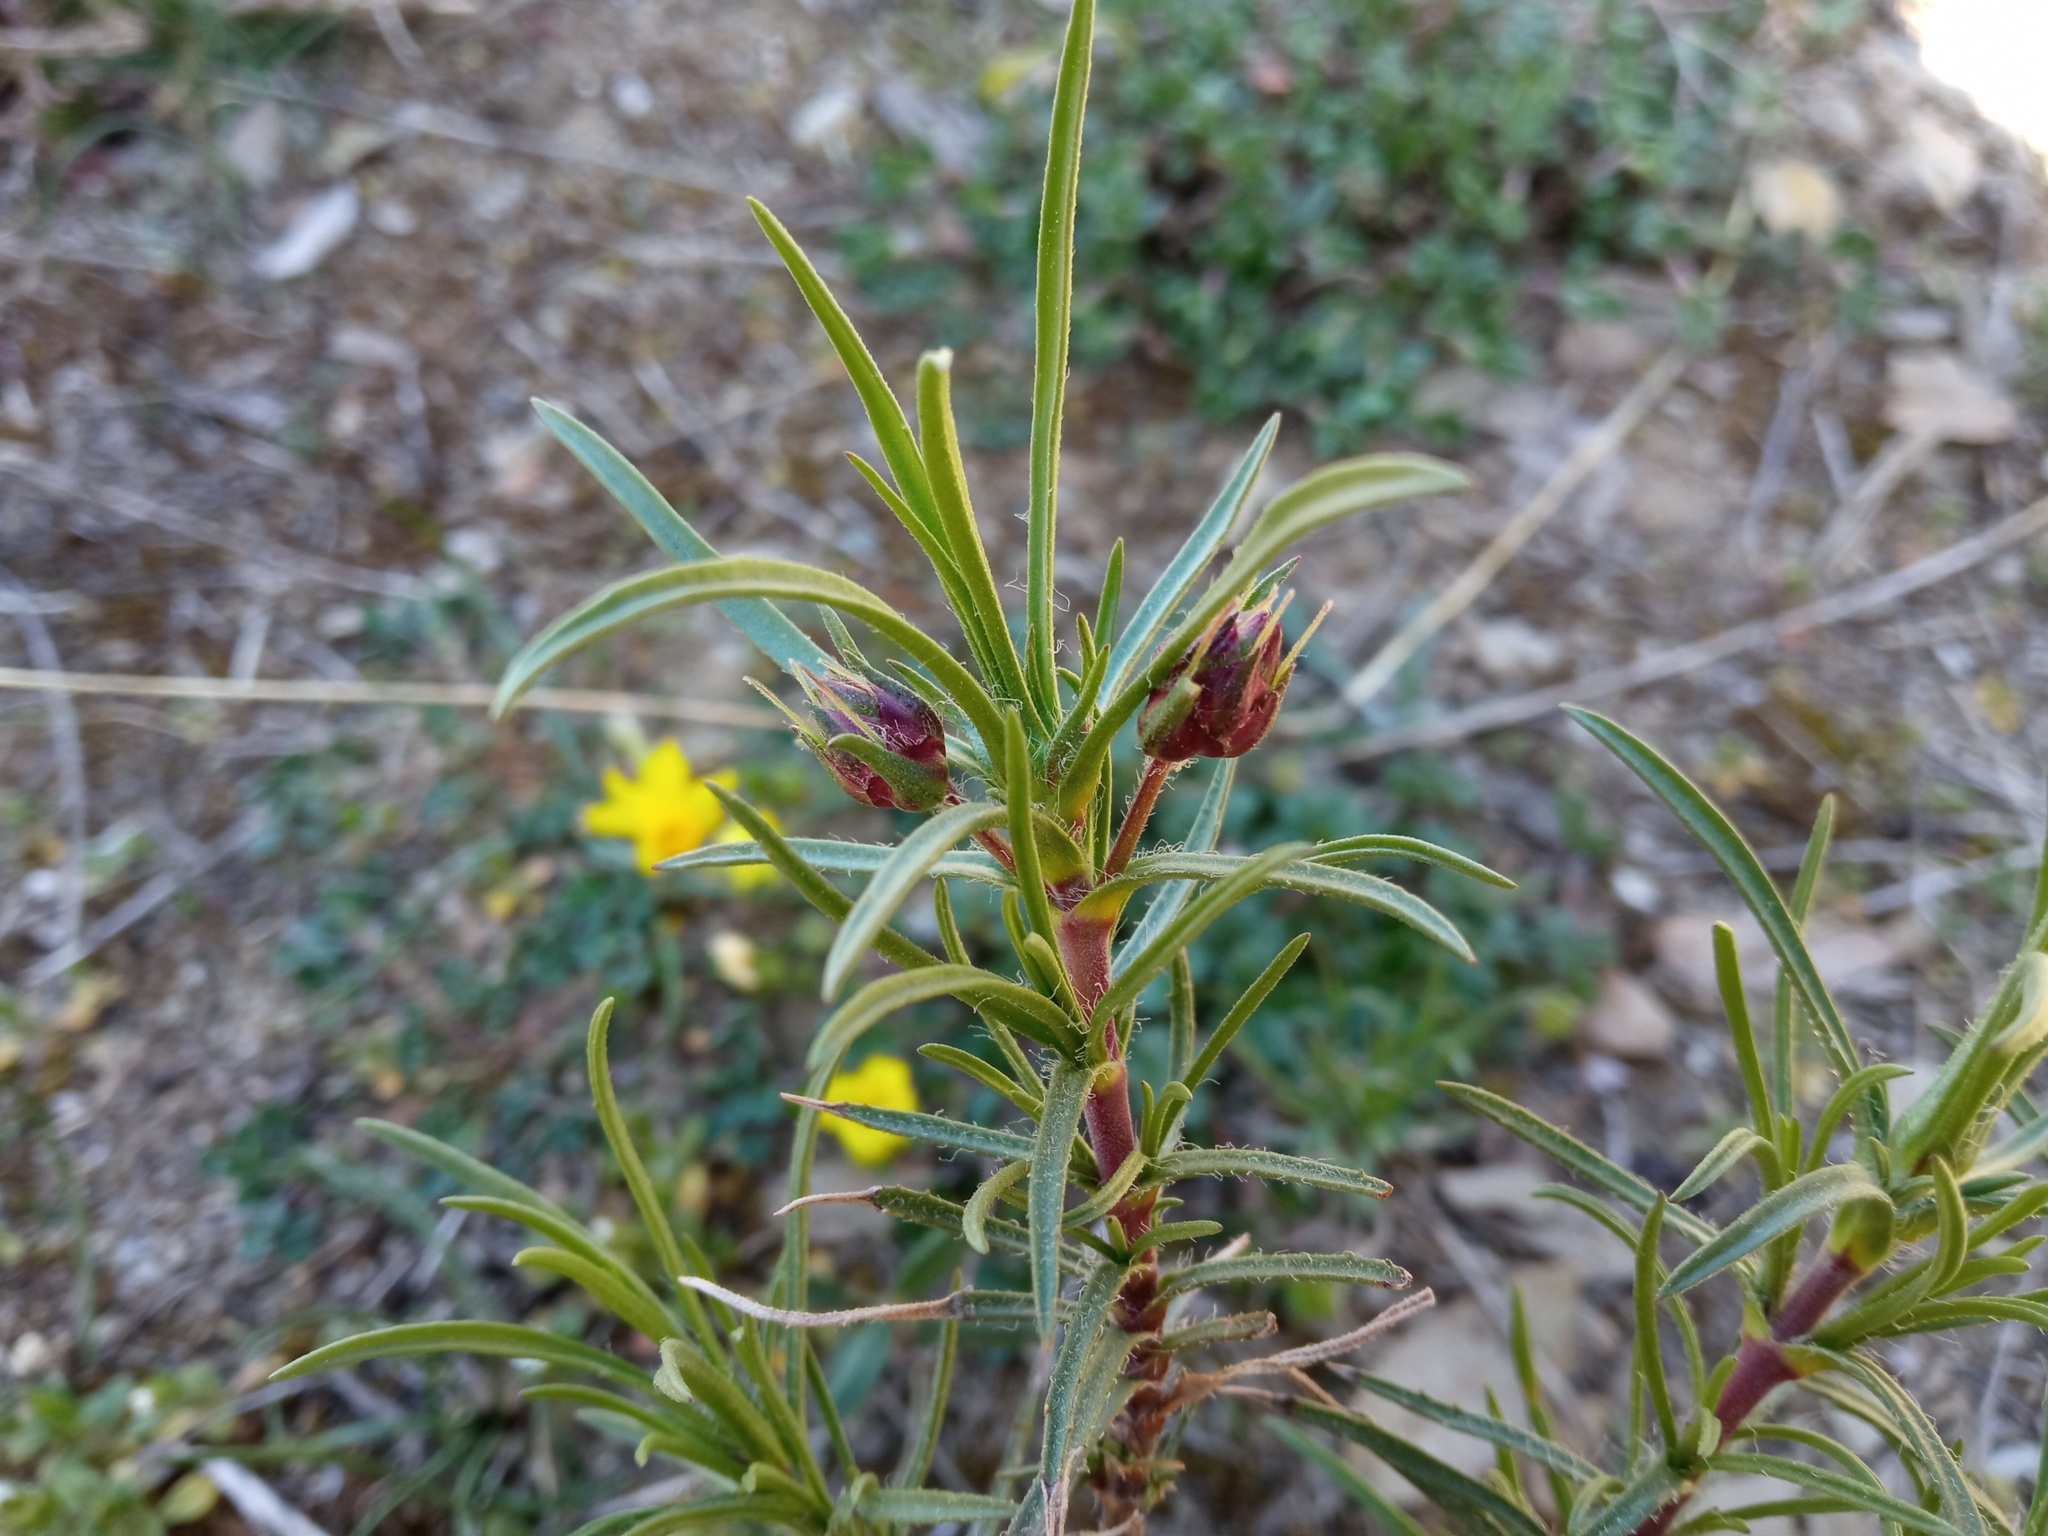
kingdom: Plantae
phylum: Tracheophyta
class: Magnoliopsida
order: Lamiales
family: Plantaginaceae
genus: Plantago
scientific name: Plantago sempervirens
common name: Shrubby plantain
